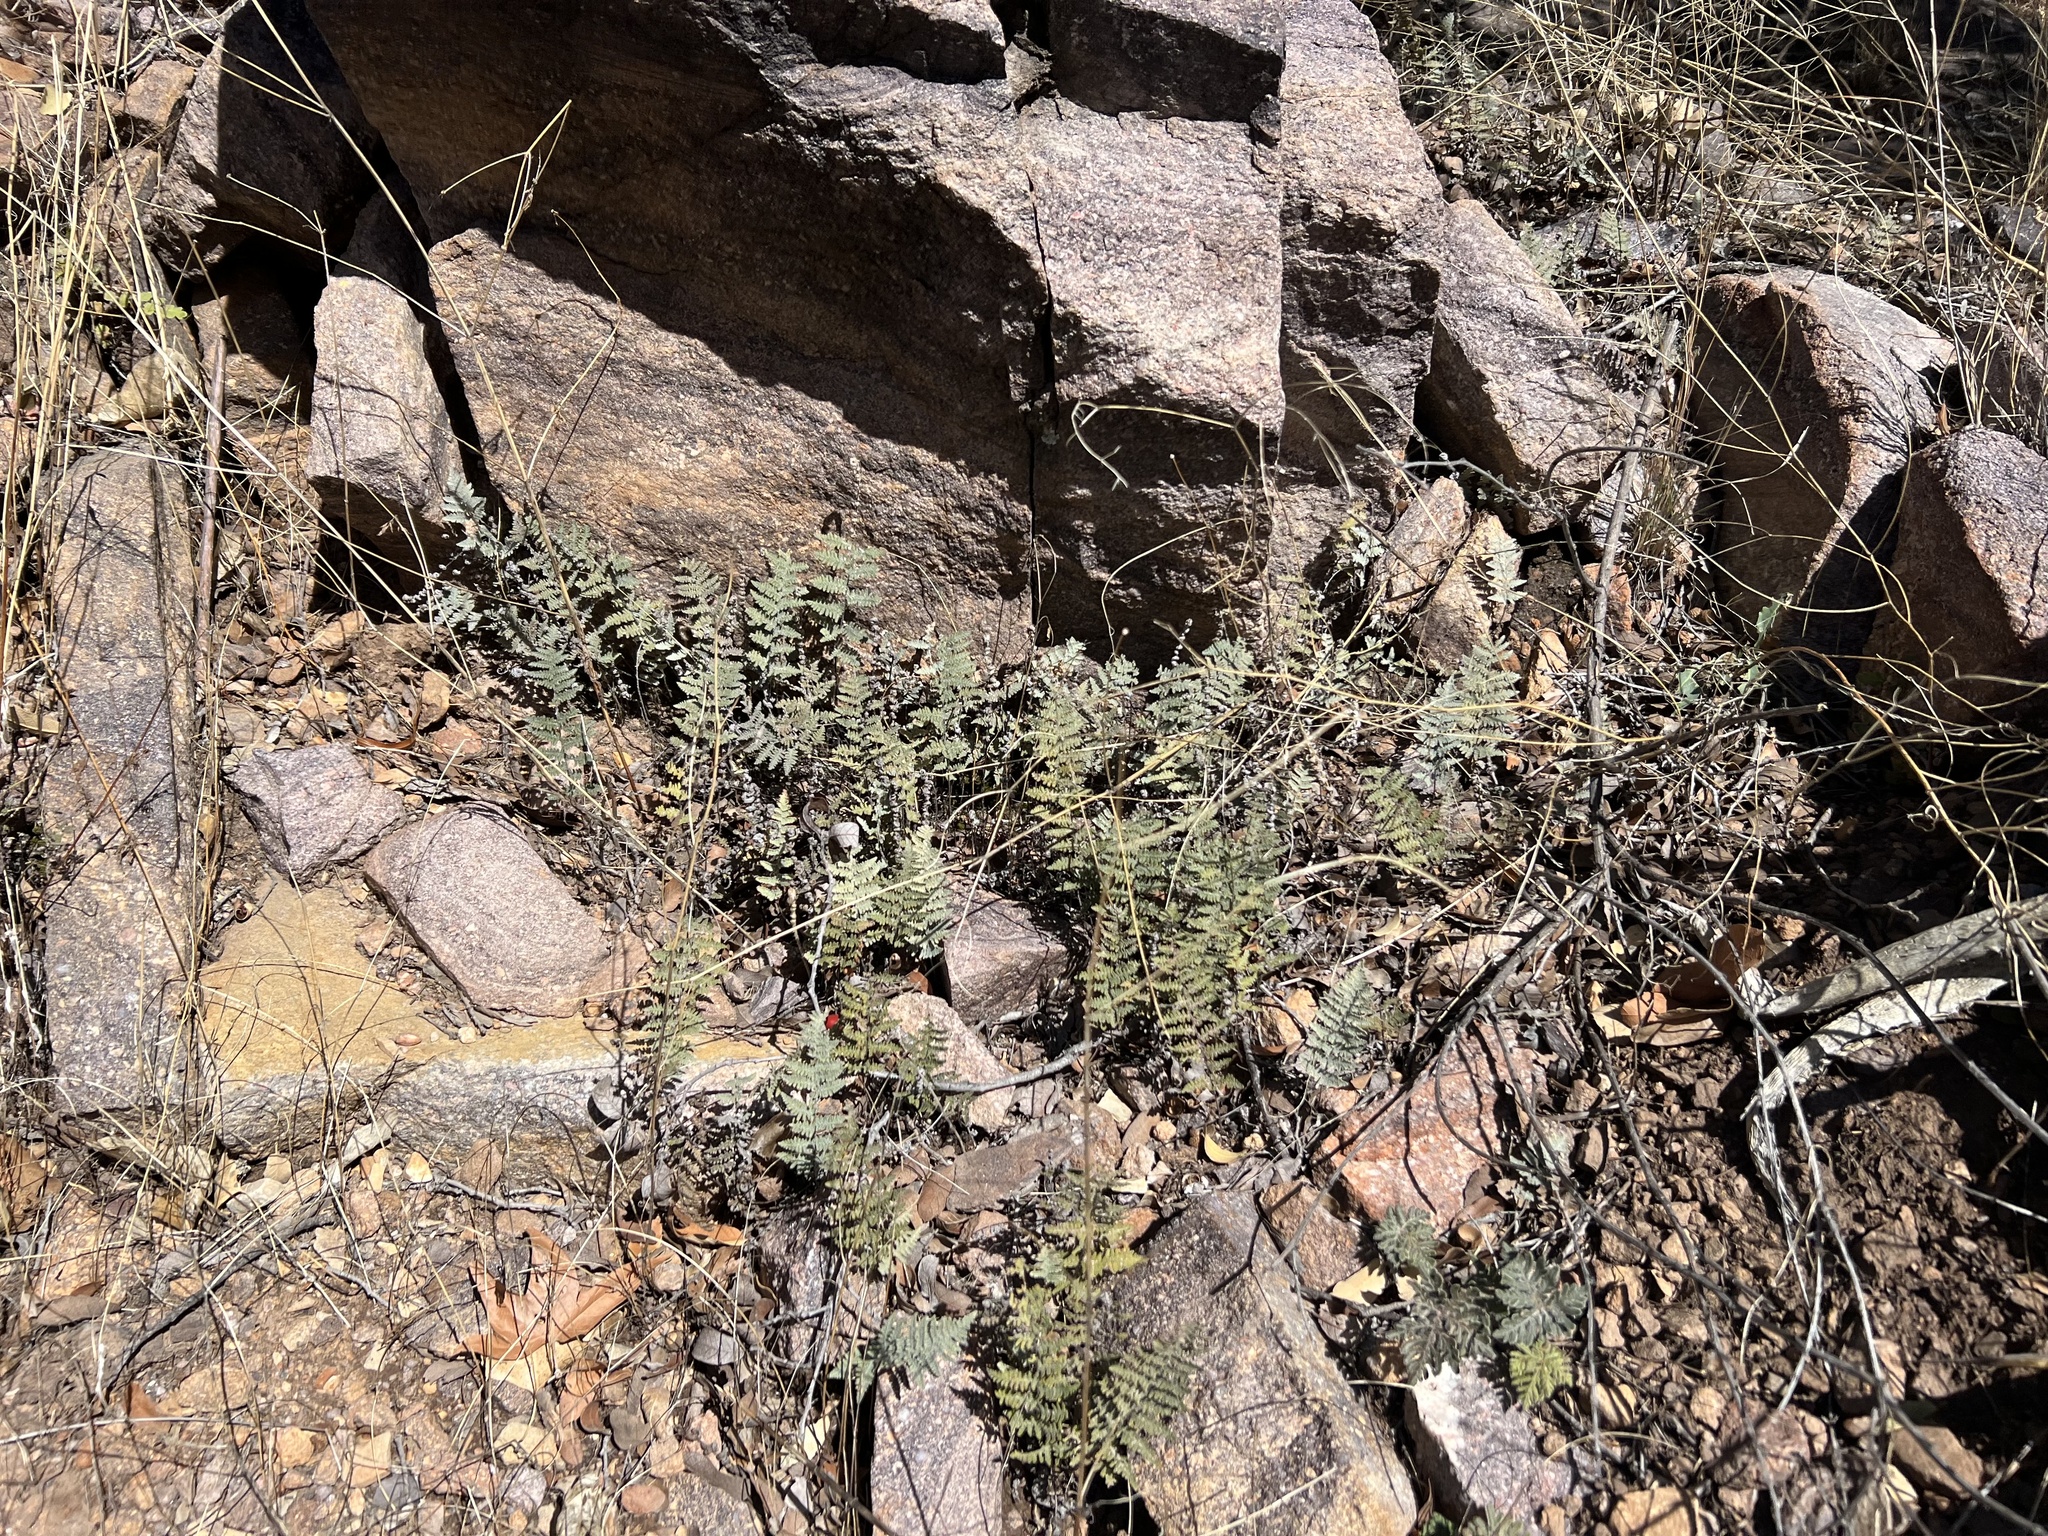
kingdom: Plantae
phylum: Tracheophyta
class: Polypodiopsida
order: Polypodiales
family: Pteridaceae
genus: Myriopteris
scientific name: Myriopteris lindheimeri
